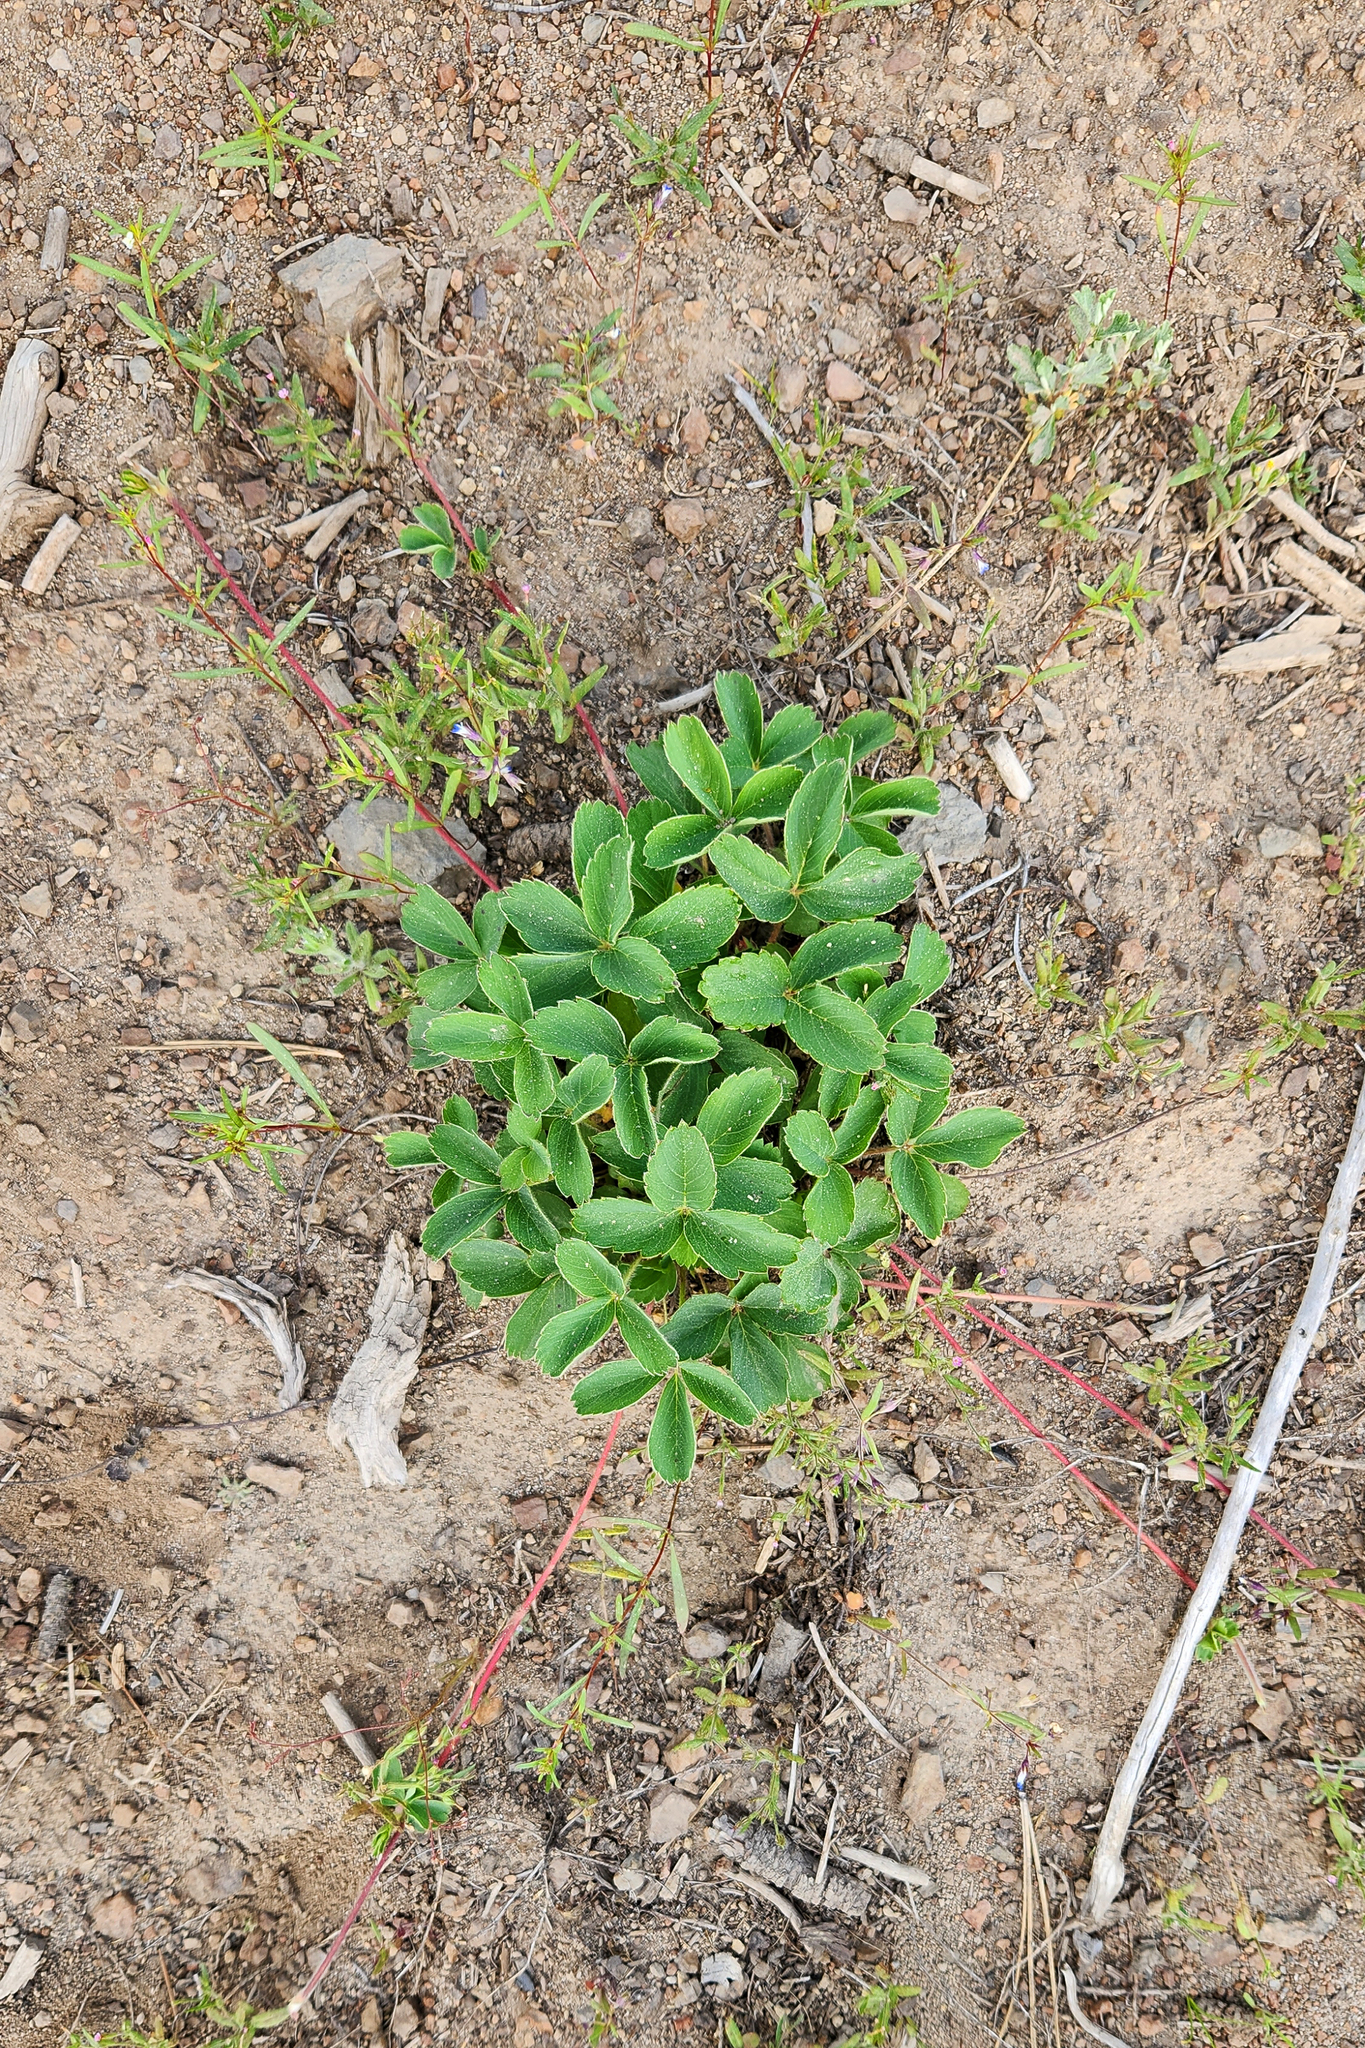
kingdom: Plantae
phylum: Tracheophyta
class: Magnoliopsida
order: Rosales
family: Rosaceae
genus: Fragaria
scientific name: Fragaria virginiana
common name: Thickleaved wild strawberry
